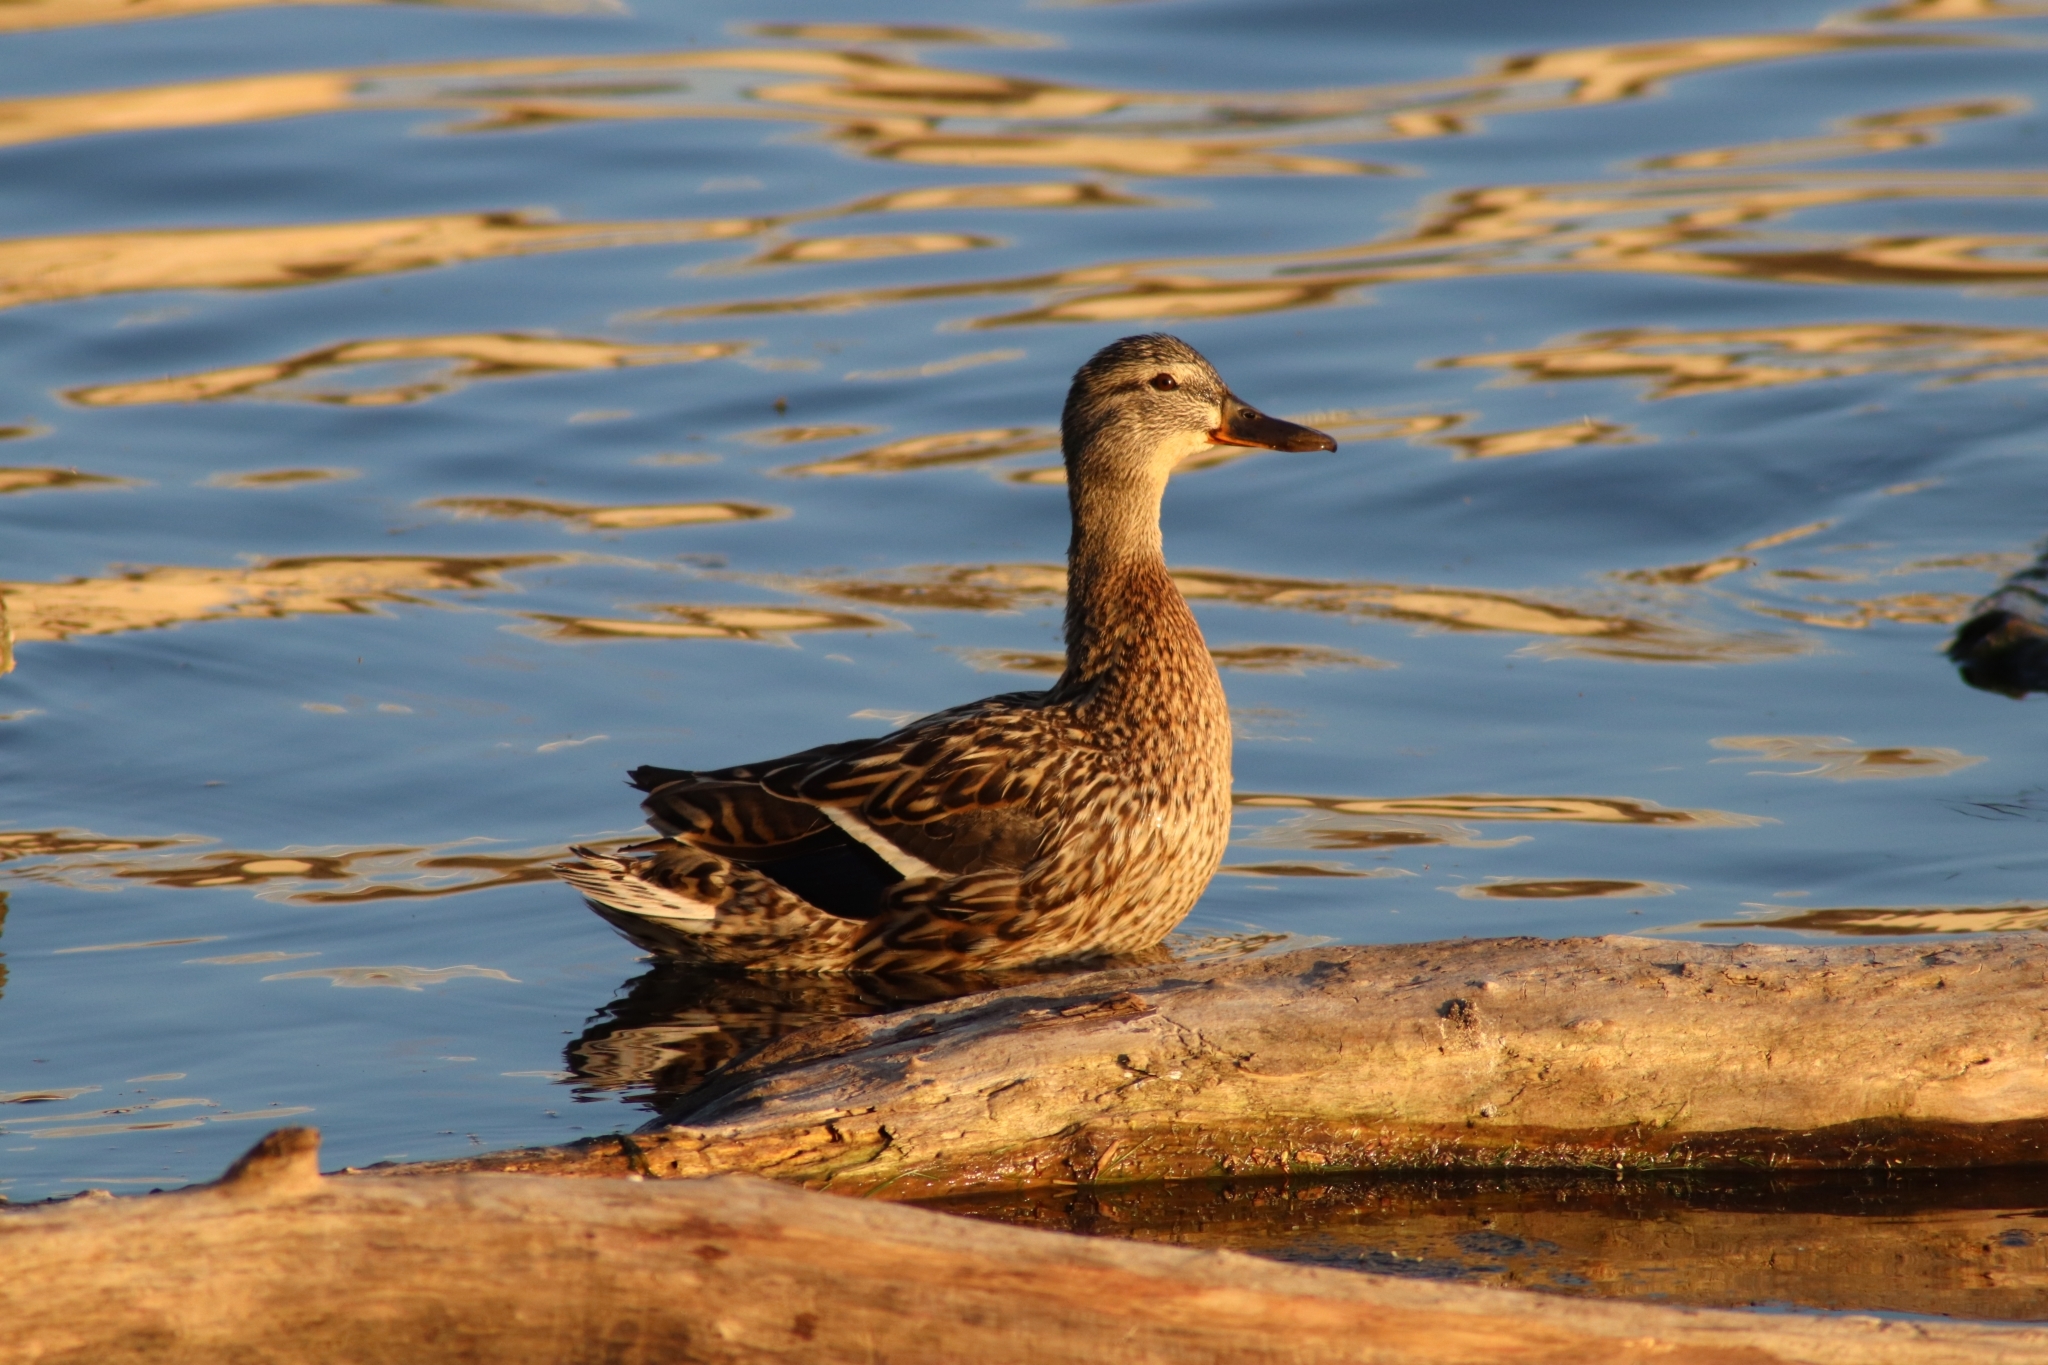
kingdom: Animalia
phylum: Chordata
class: Aves
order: Anseriformes
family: Anatidae
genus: Anas
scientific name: Anas platyrhynchos
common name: Mallard
